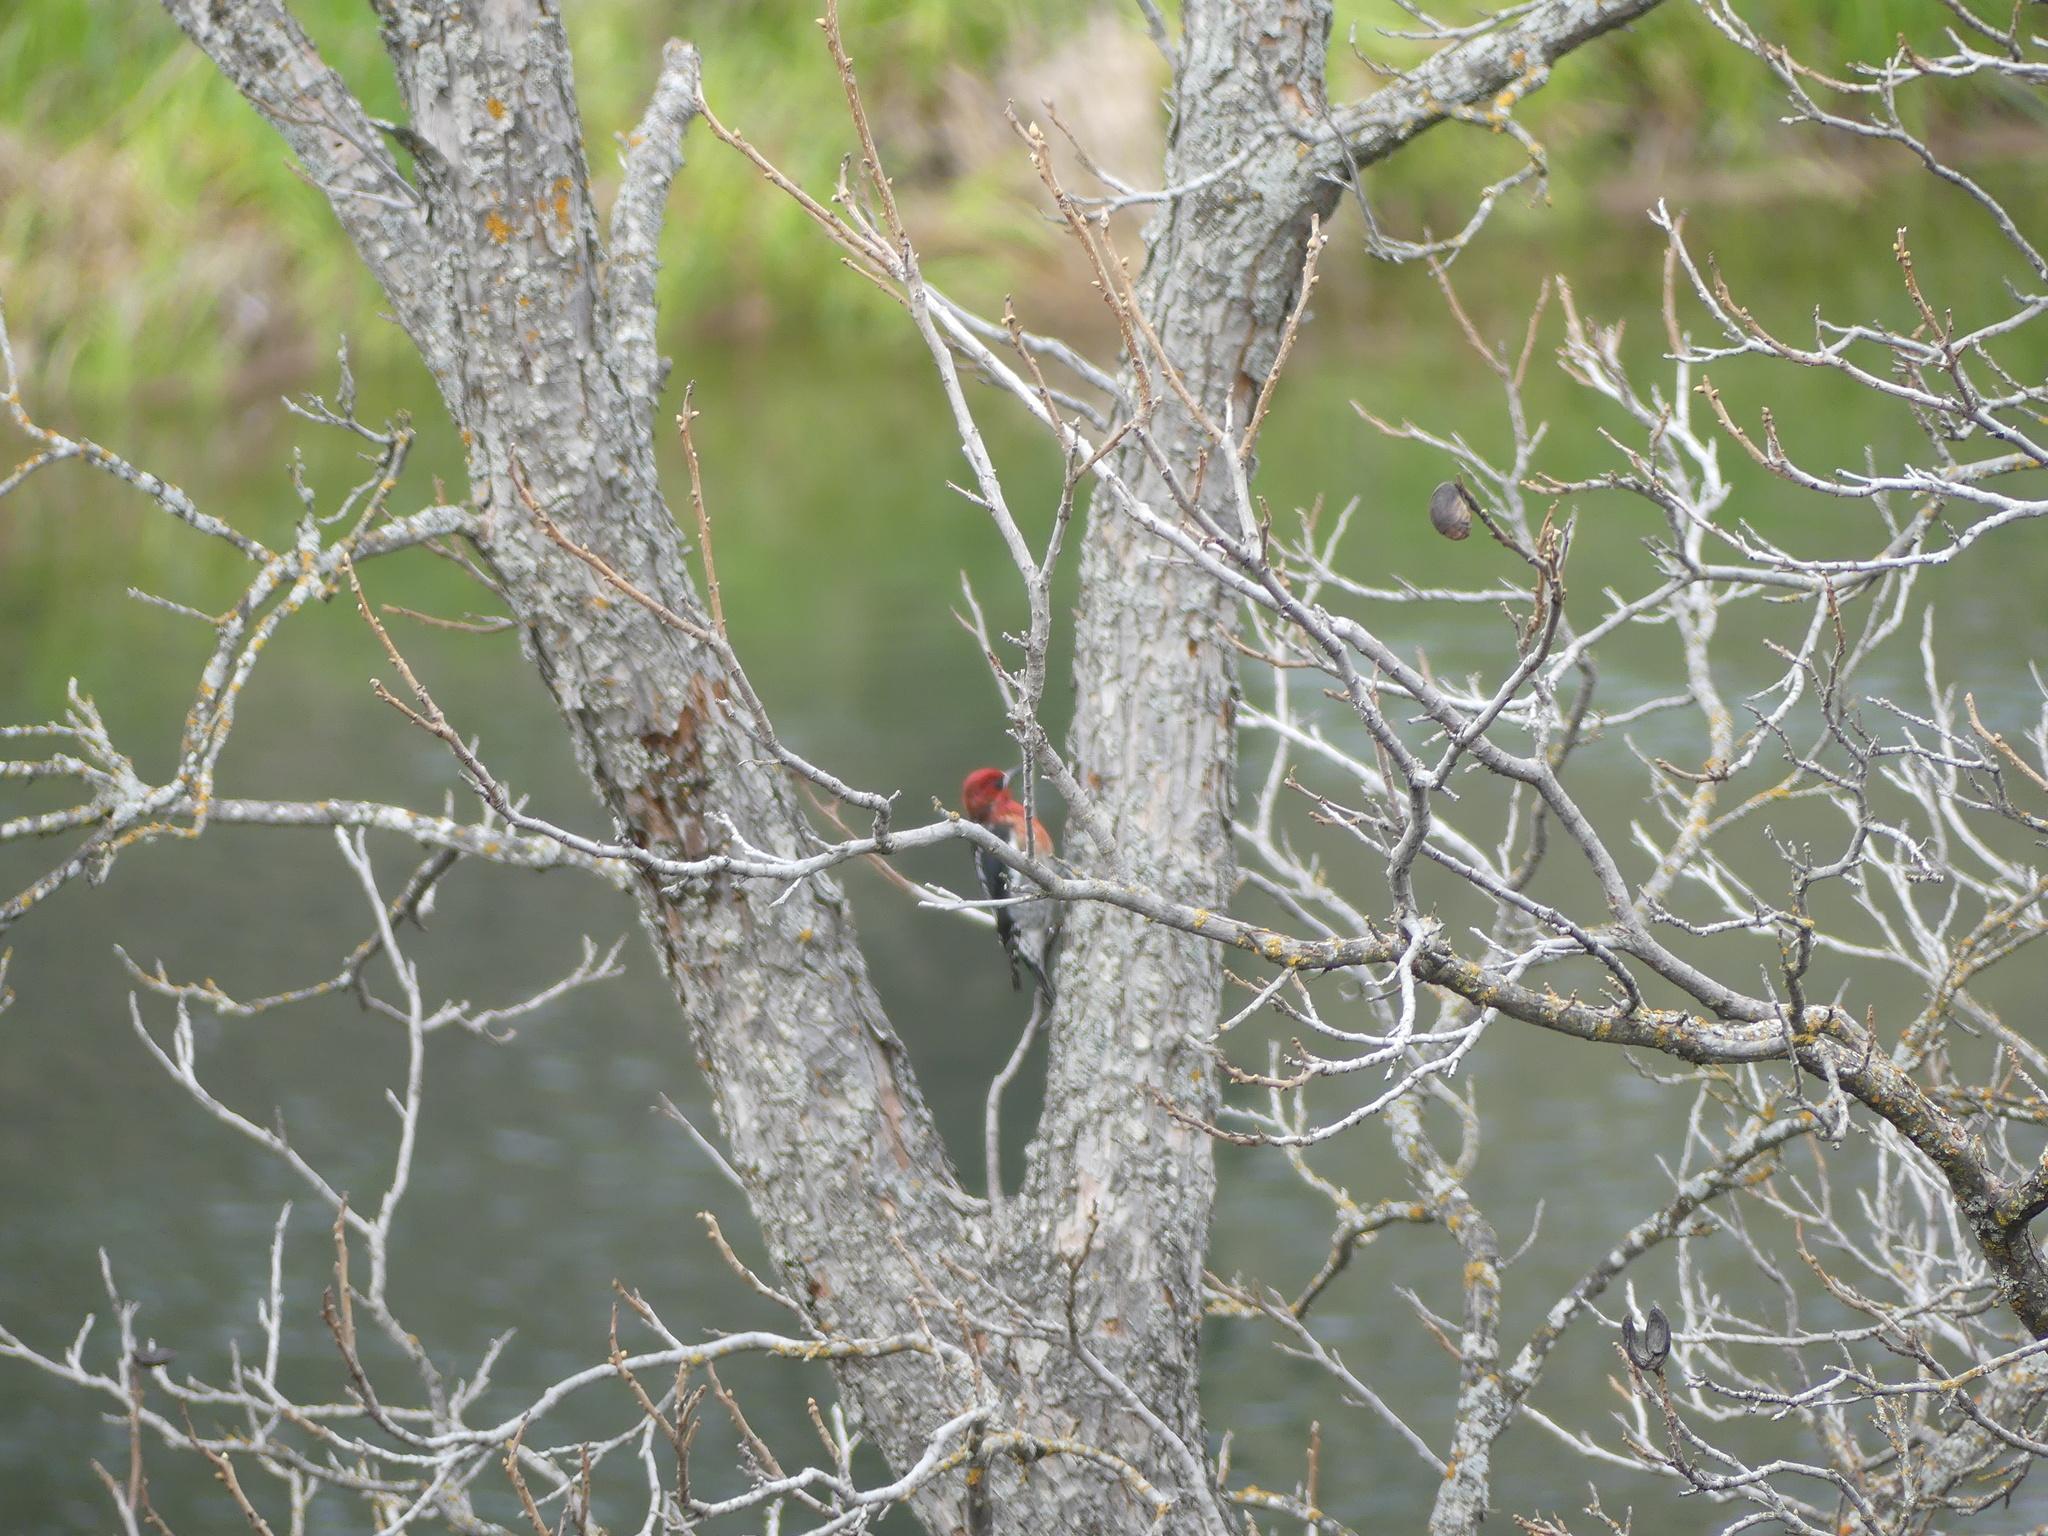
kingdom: Animalia
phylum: Chordata
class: Aves
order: Piciformes
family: Picidae
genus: Sphyrapicus
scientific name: Sphyrapicus ruber
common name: Red-breasted sapsucker
